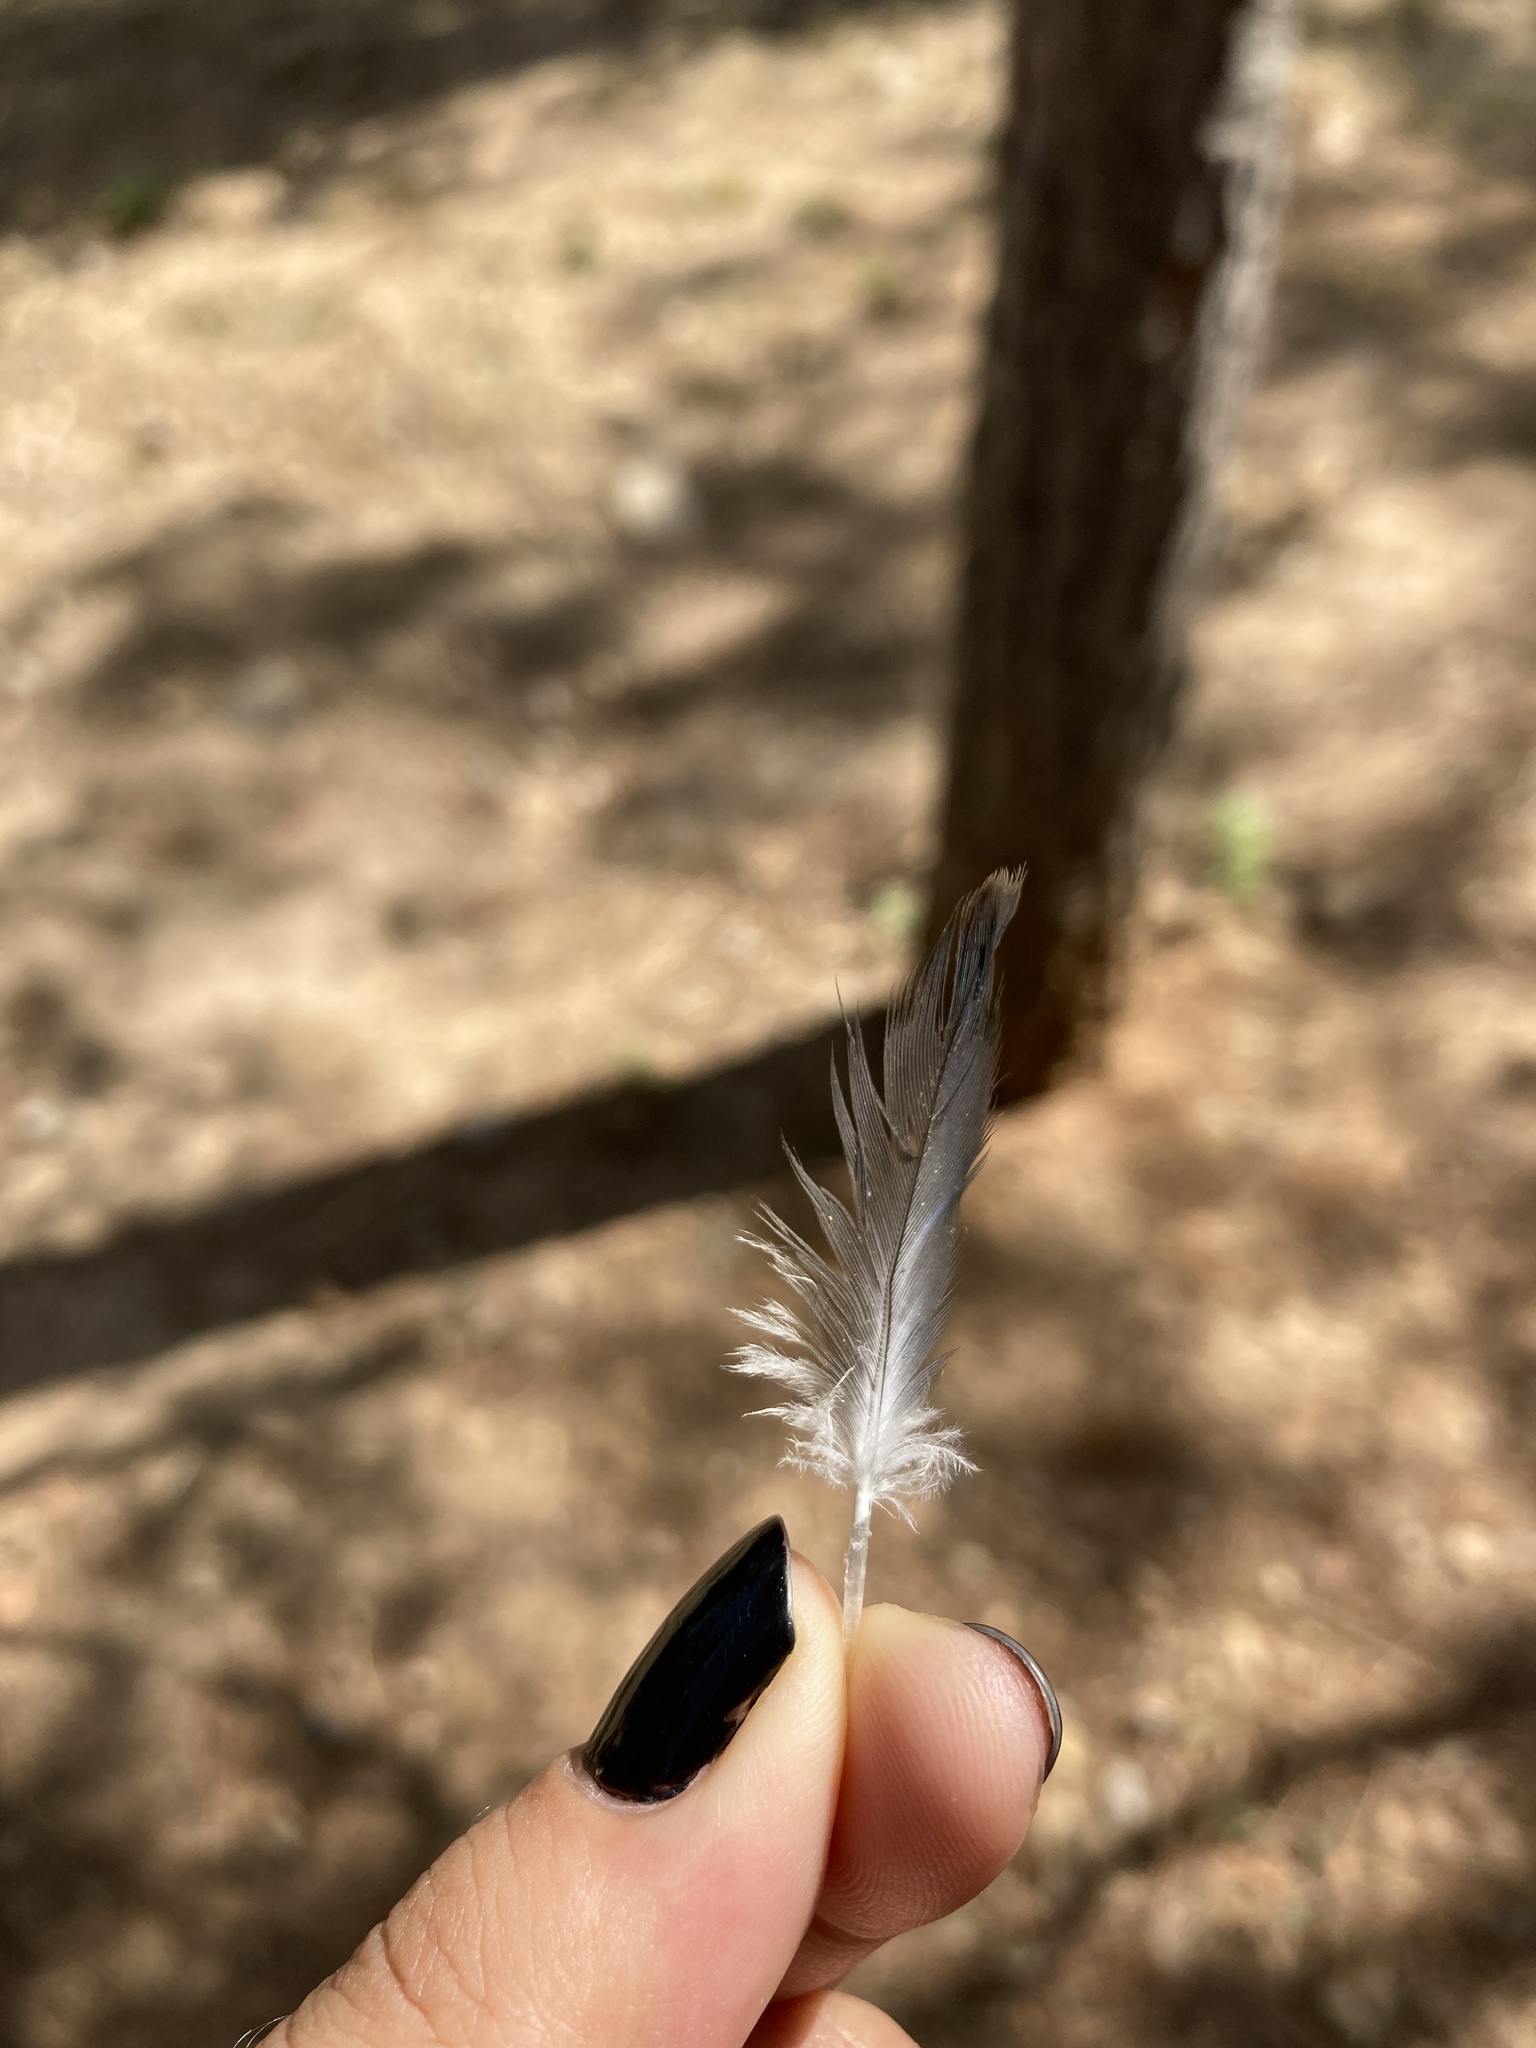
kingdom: Animalia
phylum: Chordata
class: Aves
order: Psittaciformes
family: Psittacidae
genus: Myiopsitta
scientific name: Myiopsitta monachus
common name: Monk parakeet
